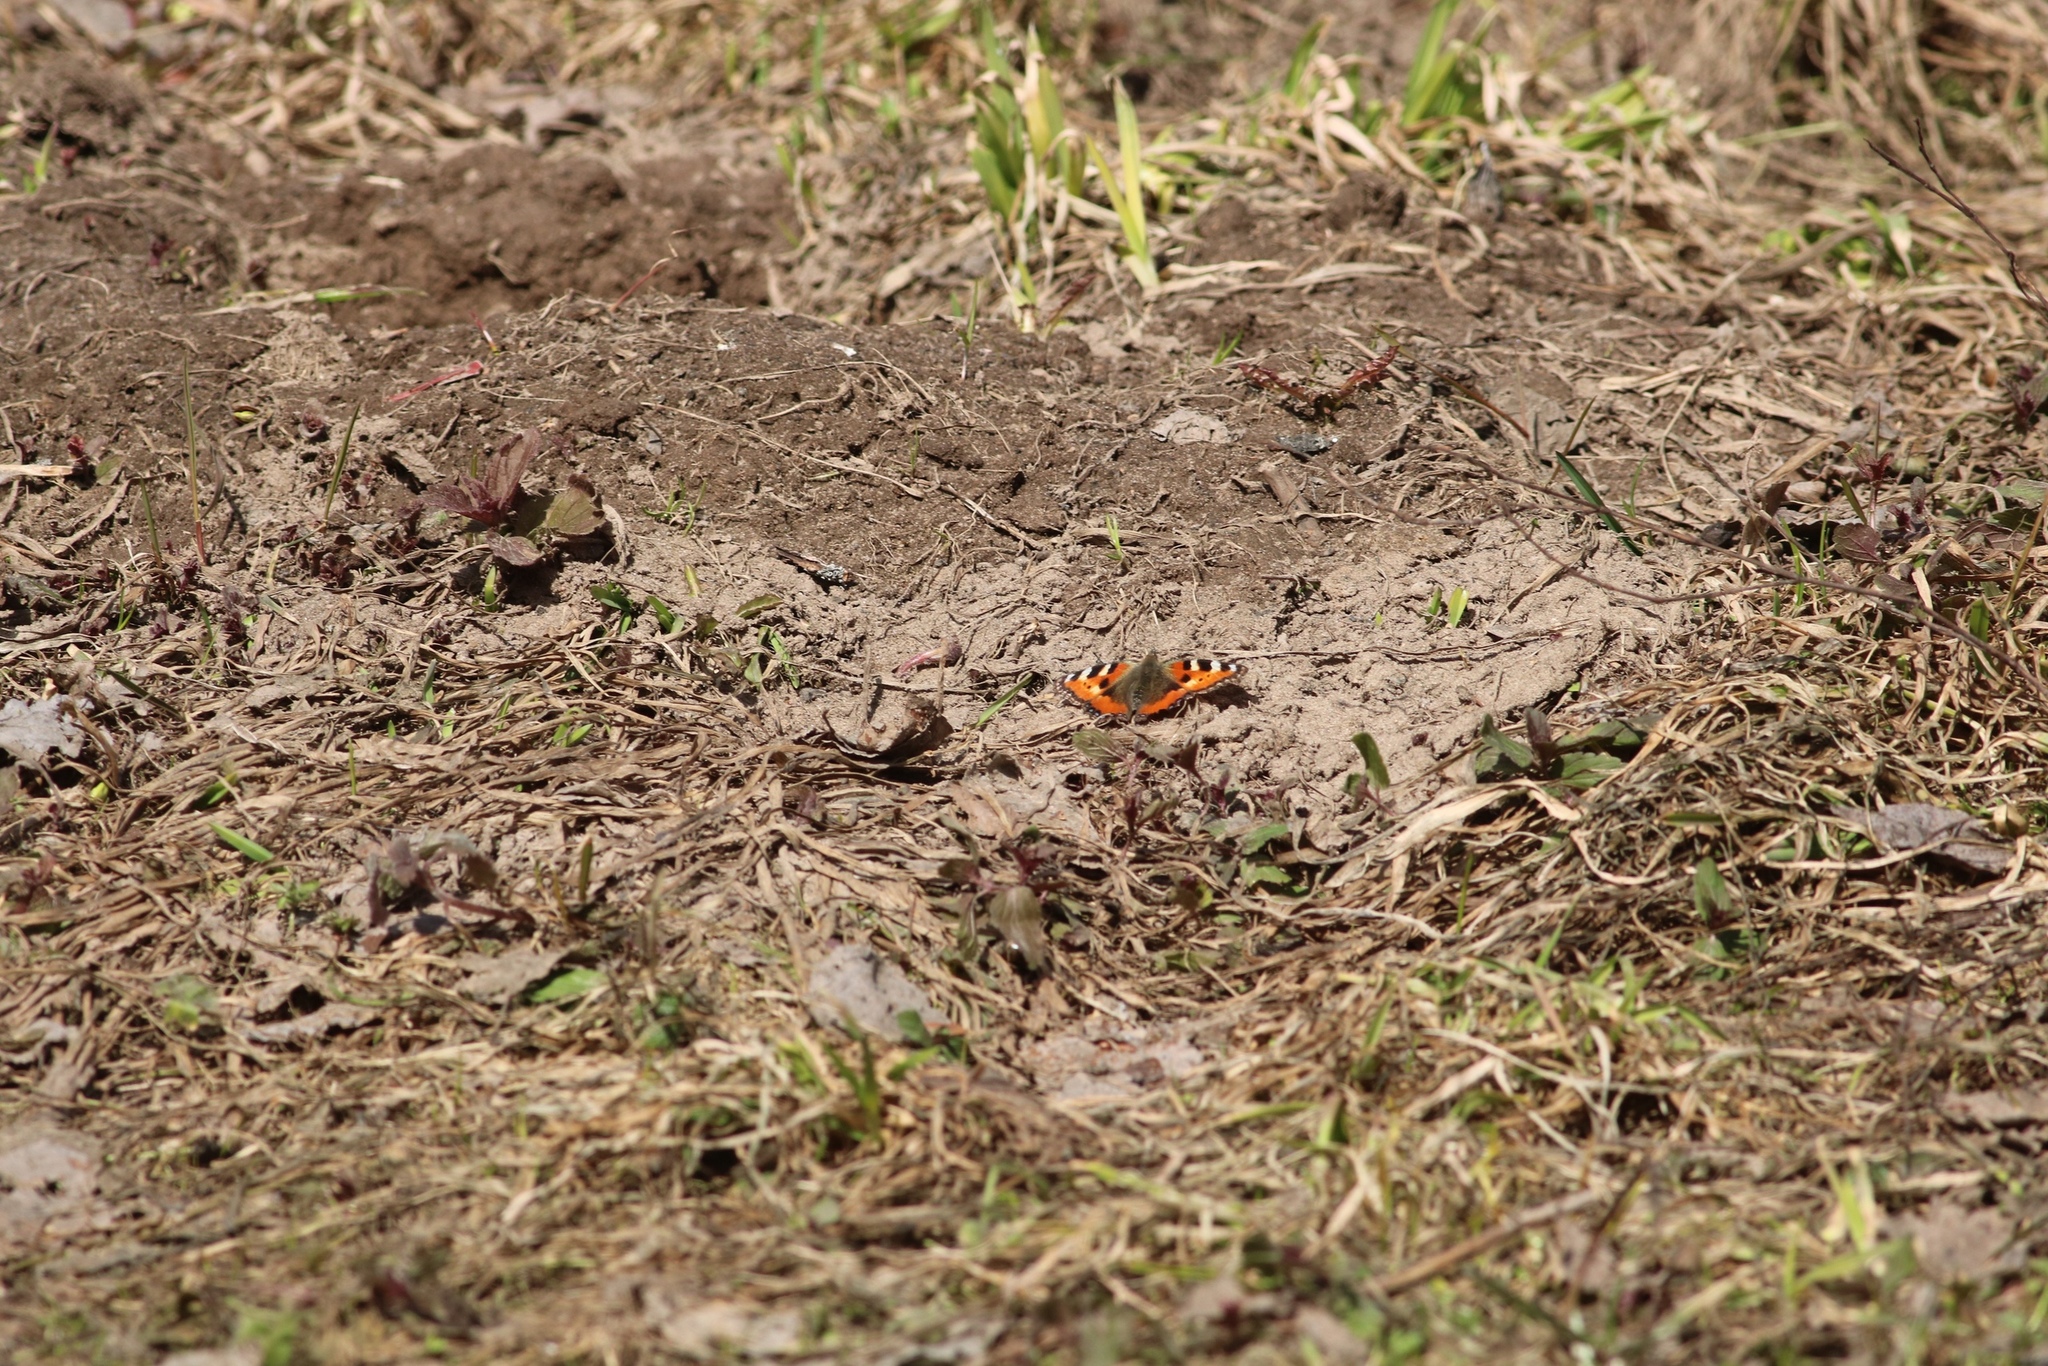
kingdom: Animalia
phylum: Arthropoda
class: Insecta
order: Lepidoptera
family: Nymphalidae
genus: Aglais
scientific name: Aglais urticae
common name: Small tortoiseshell
